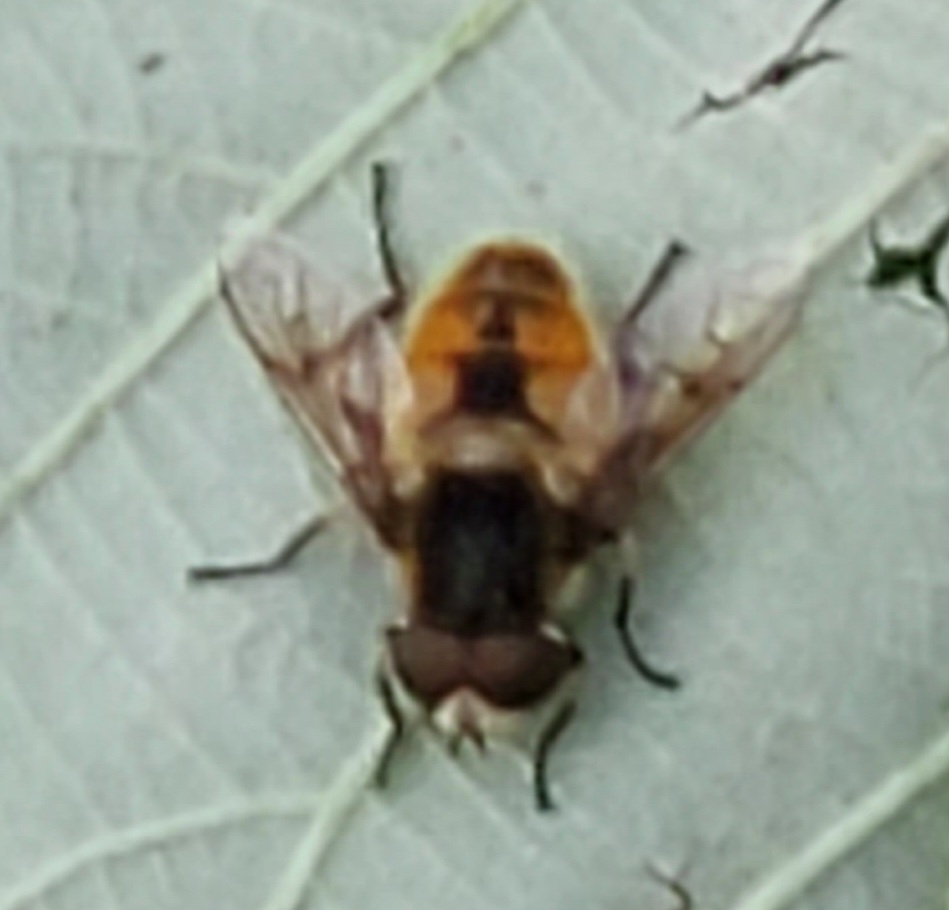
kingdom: Animalia
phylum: Arthropoda
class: Insecta
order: Diptera
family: Syrphidae
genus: Eristalis
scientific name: Eristalis anthophorina
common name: Orange-spotted drone fly
